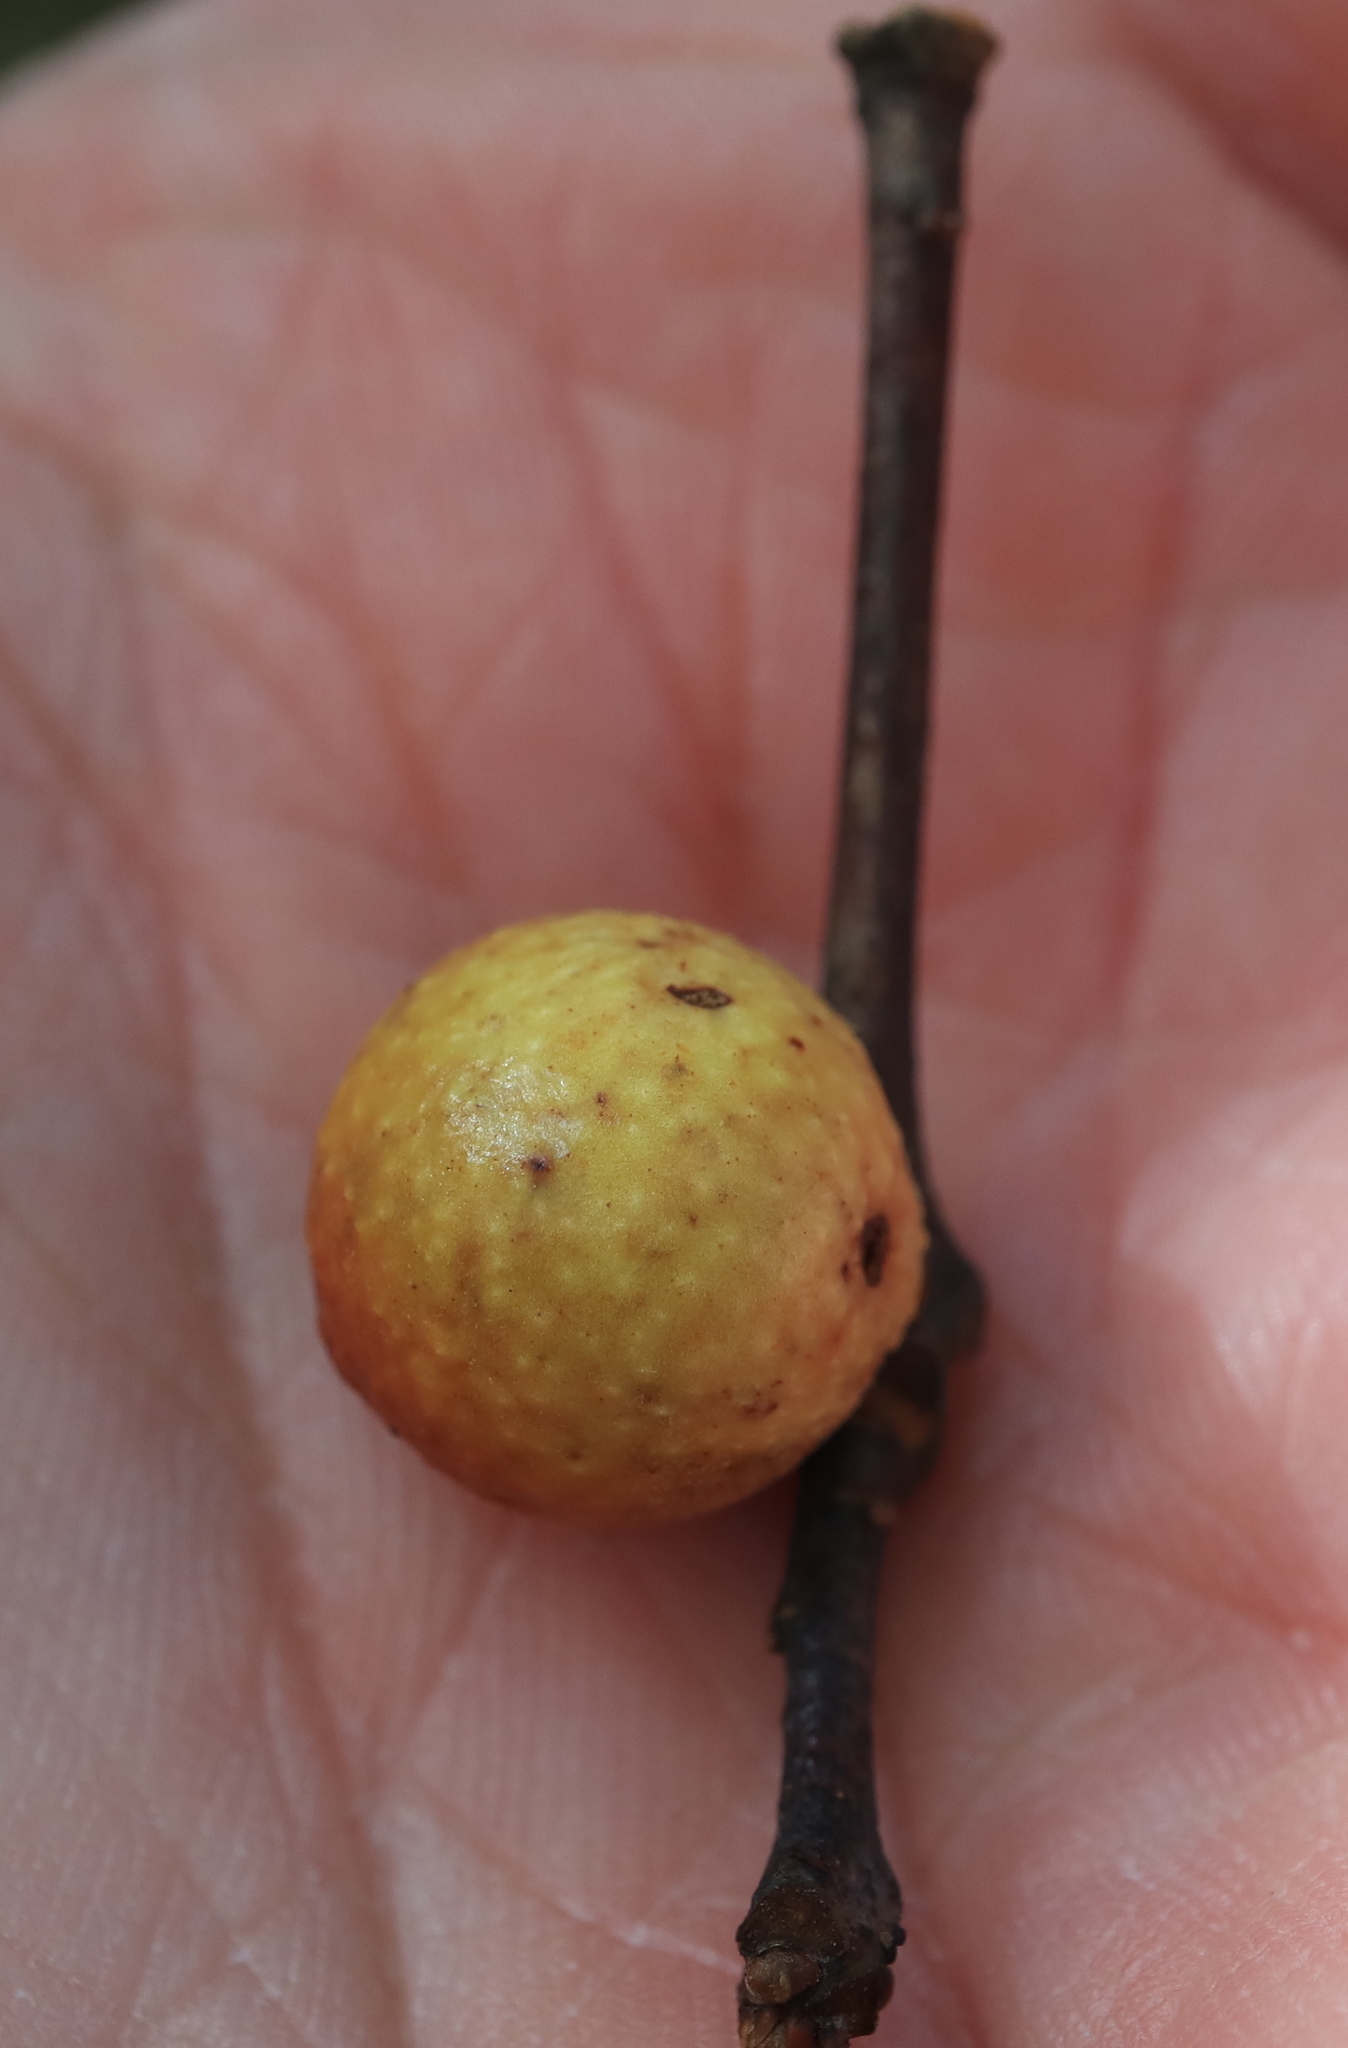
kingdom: Animalia
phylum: Arthropoda
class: Insecta
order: Hymenoptera
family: Cynipidae
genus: Disholcaspis
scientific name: Disholcaspis quercusglobulus
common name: Round bullet gall wasp
